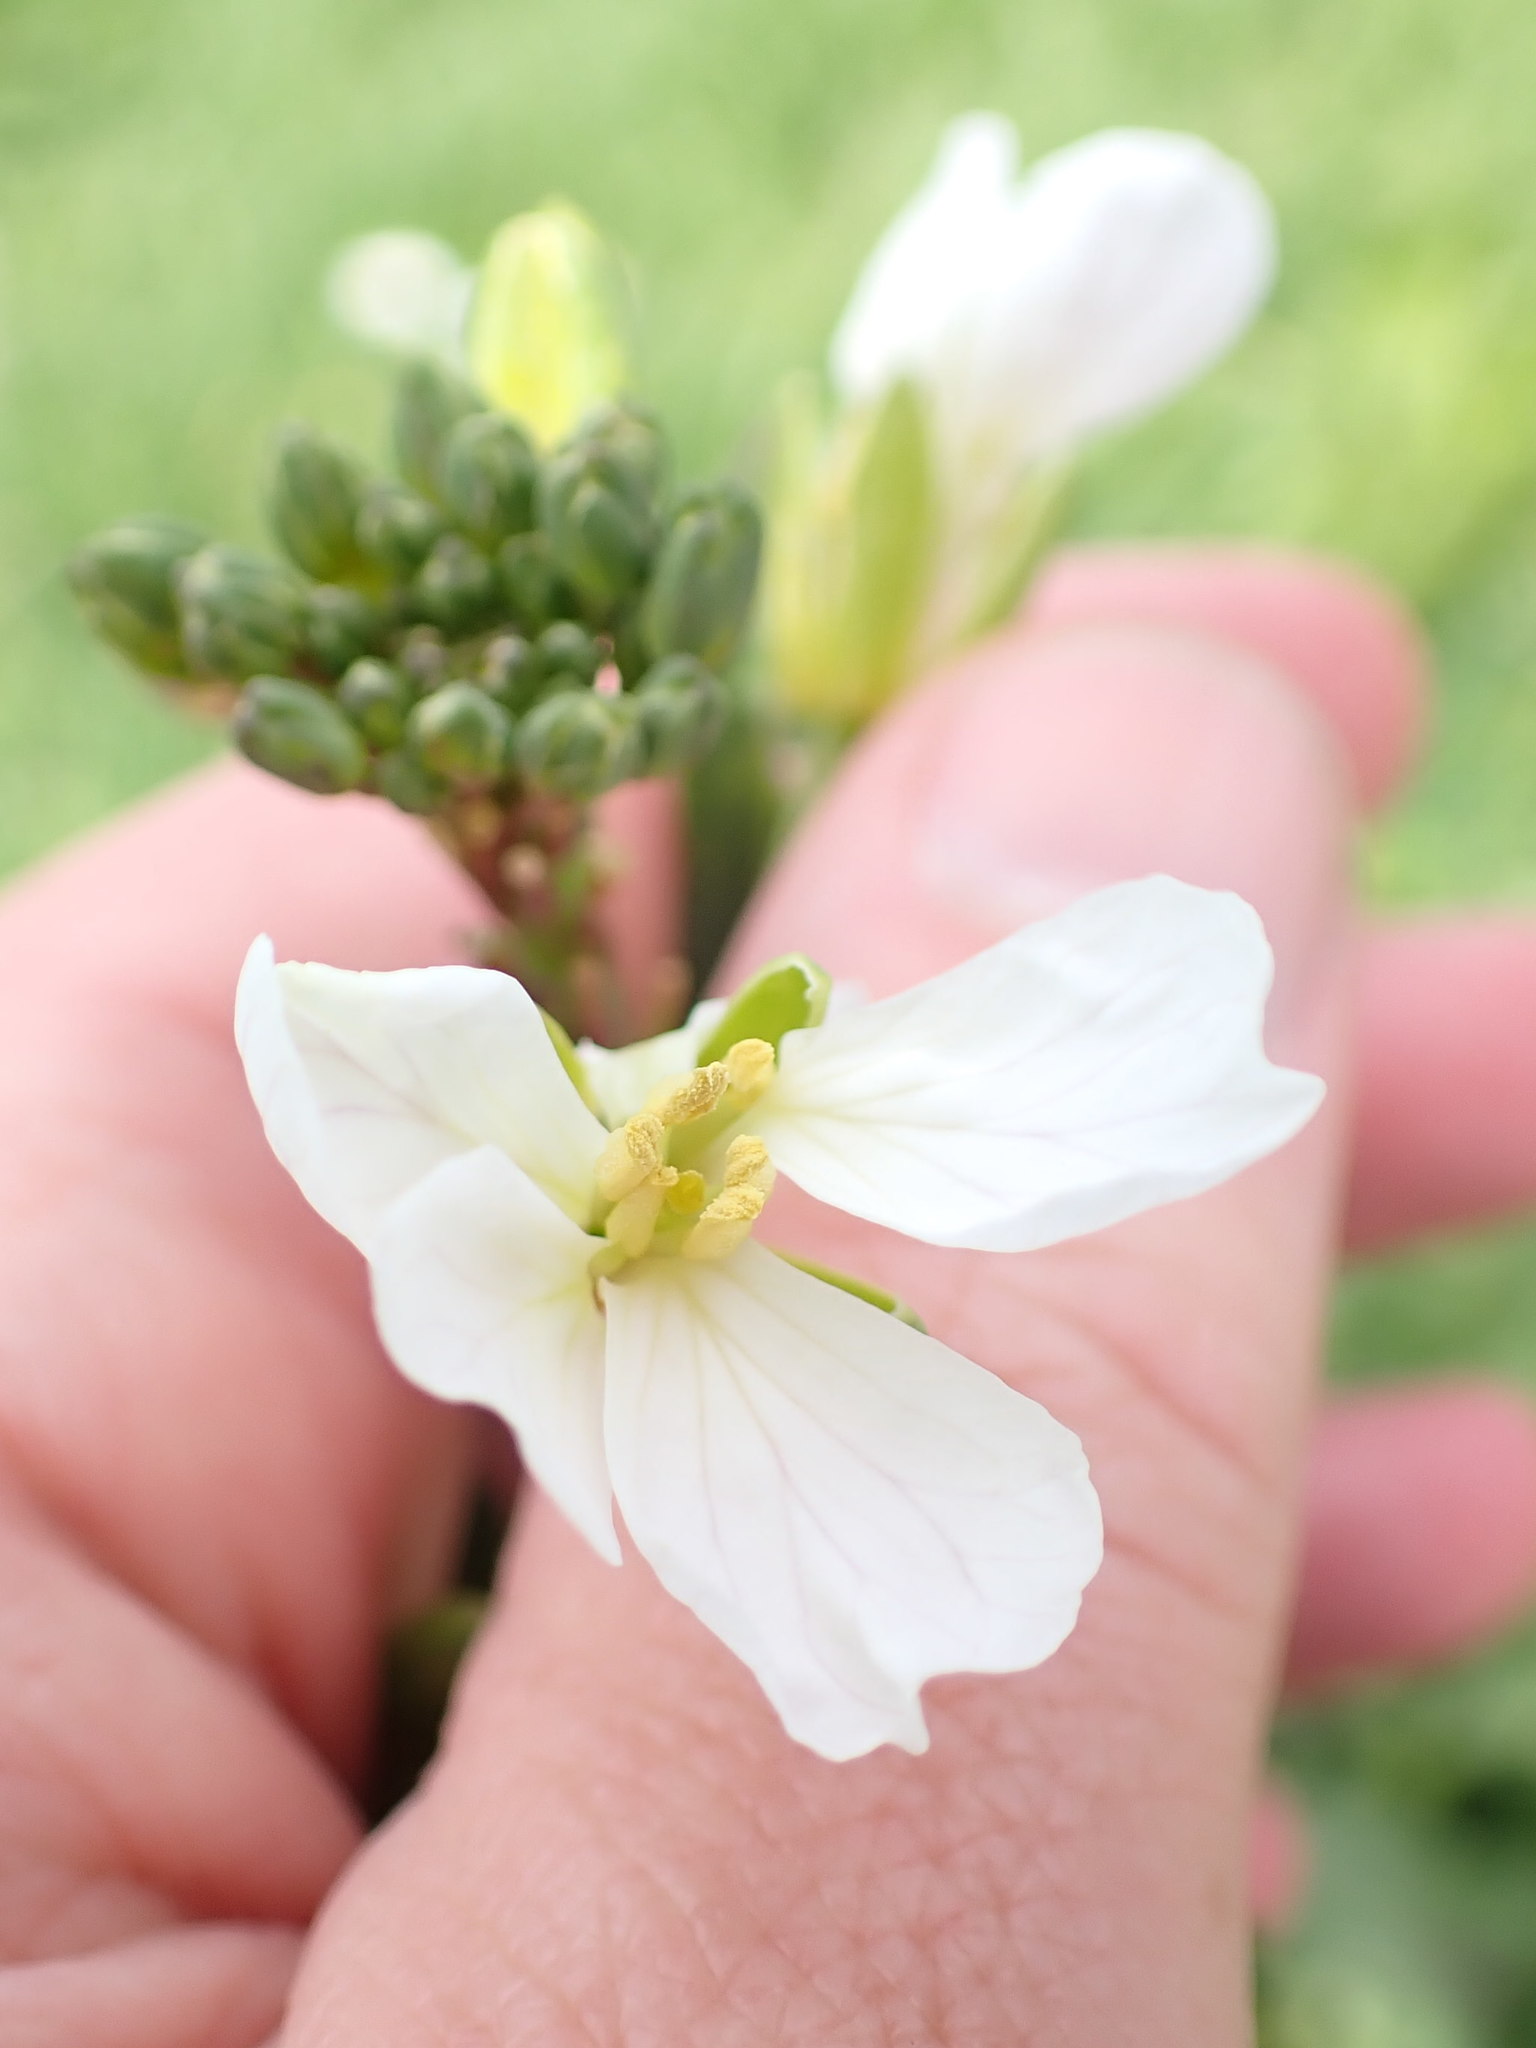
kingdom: Plantae
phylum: Tracheophyta
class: Magnoliopsida
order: Brassicales
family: Brassicaceae
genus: Raphanus
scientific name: Raphanus raphanistrum
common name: Wild radish
